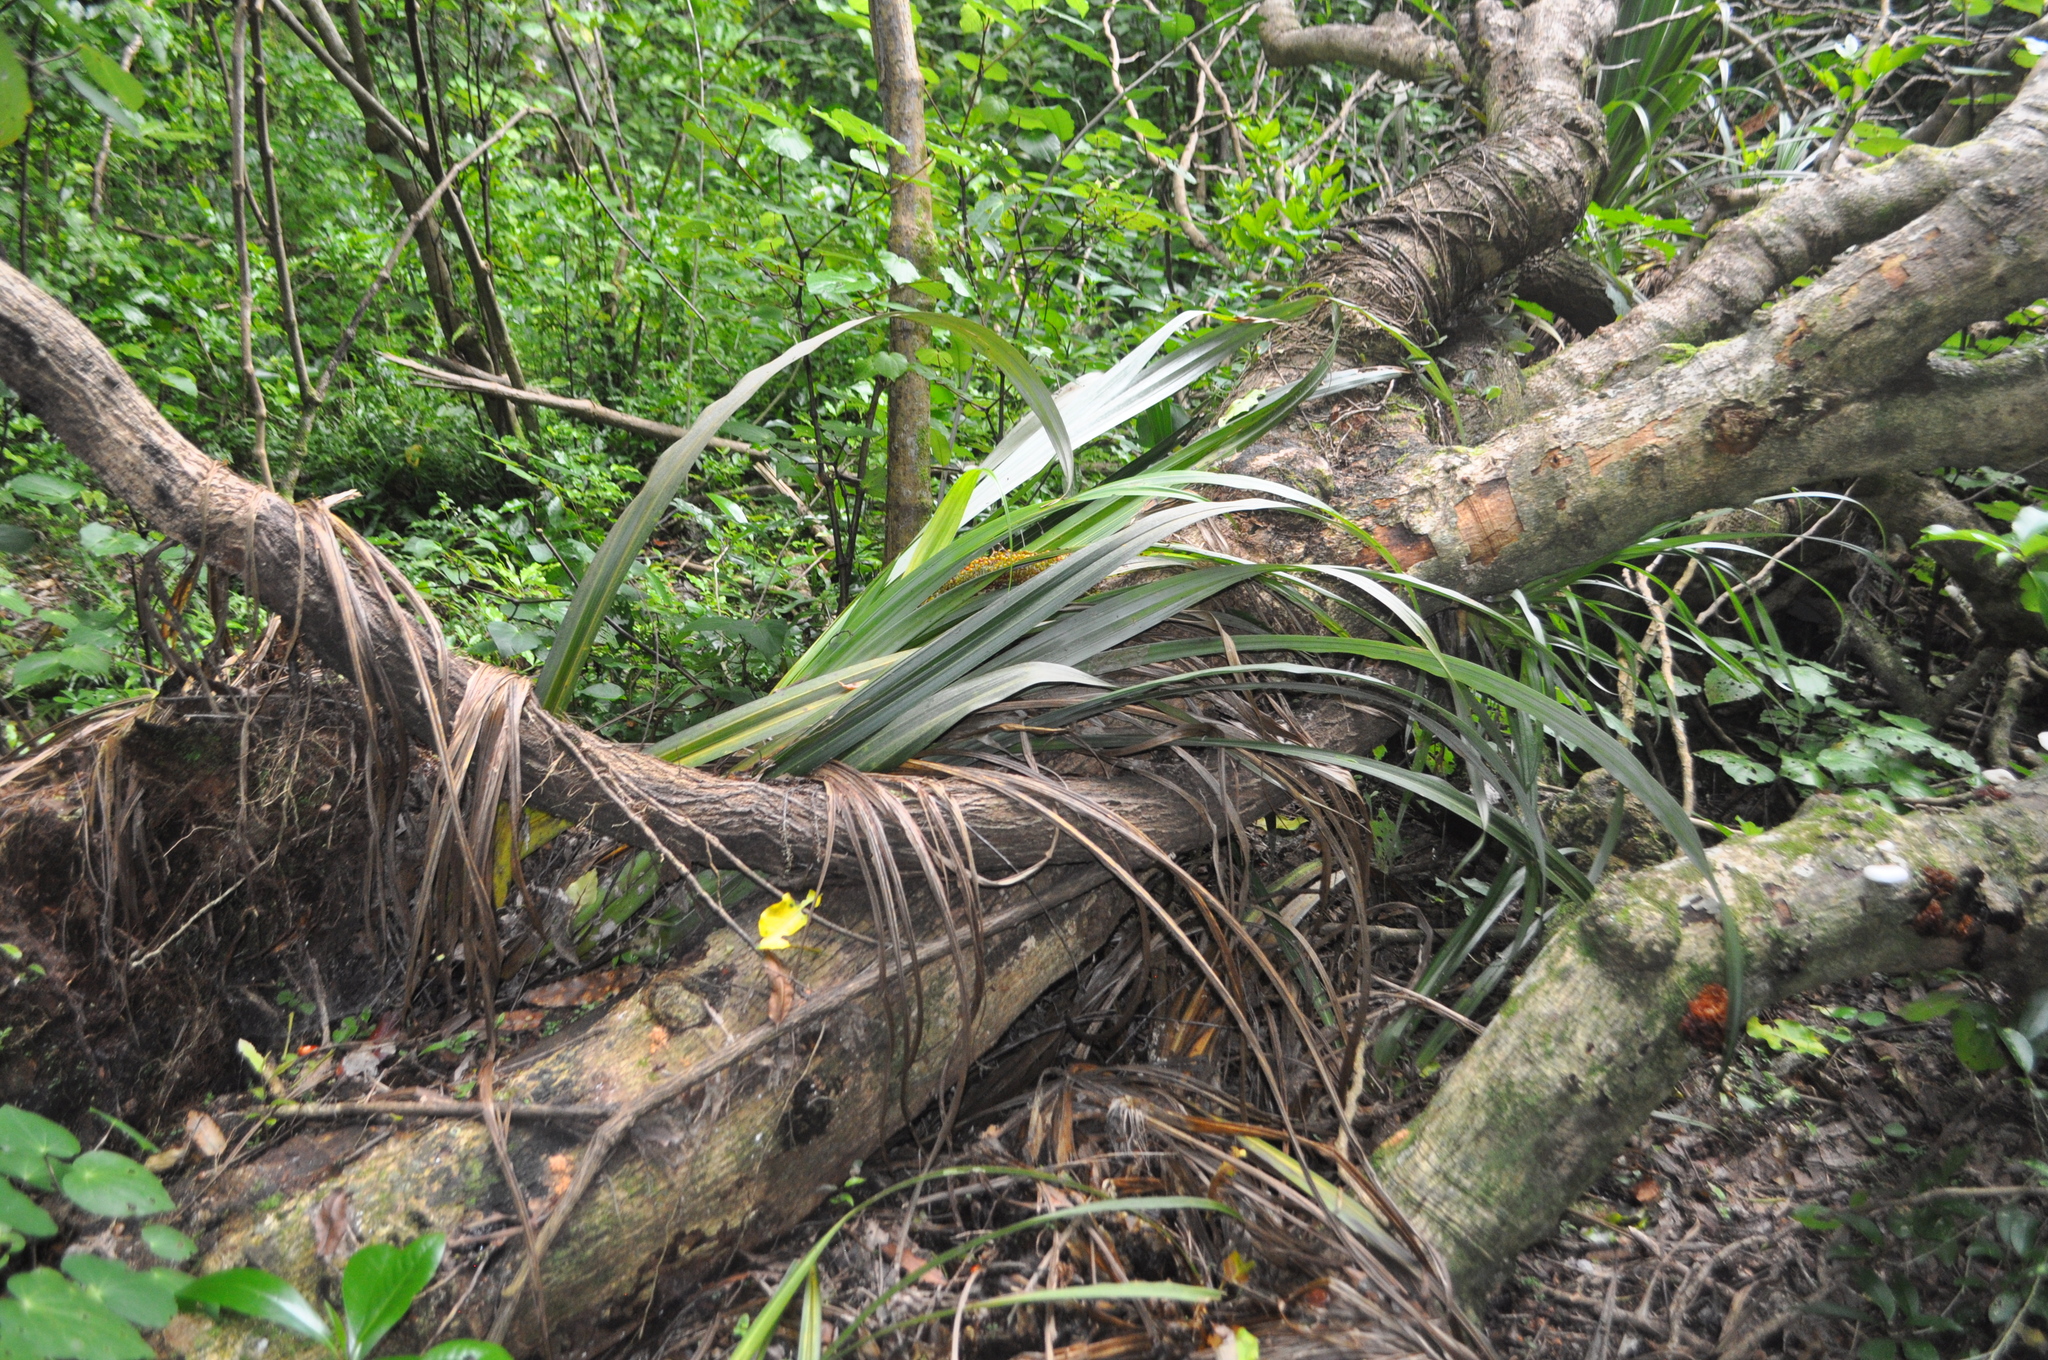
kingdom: Fungi
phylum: Basidiomycota
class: Agaricomycetes
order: Agaricales
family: Physalacriaceae
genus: Oudemansiella
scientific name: Oudemansiella australis
